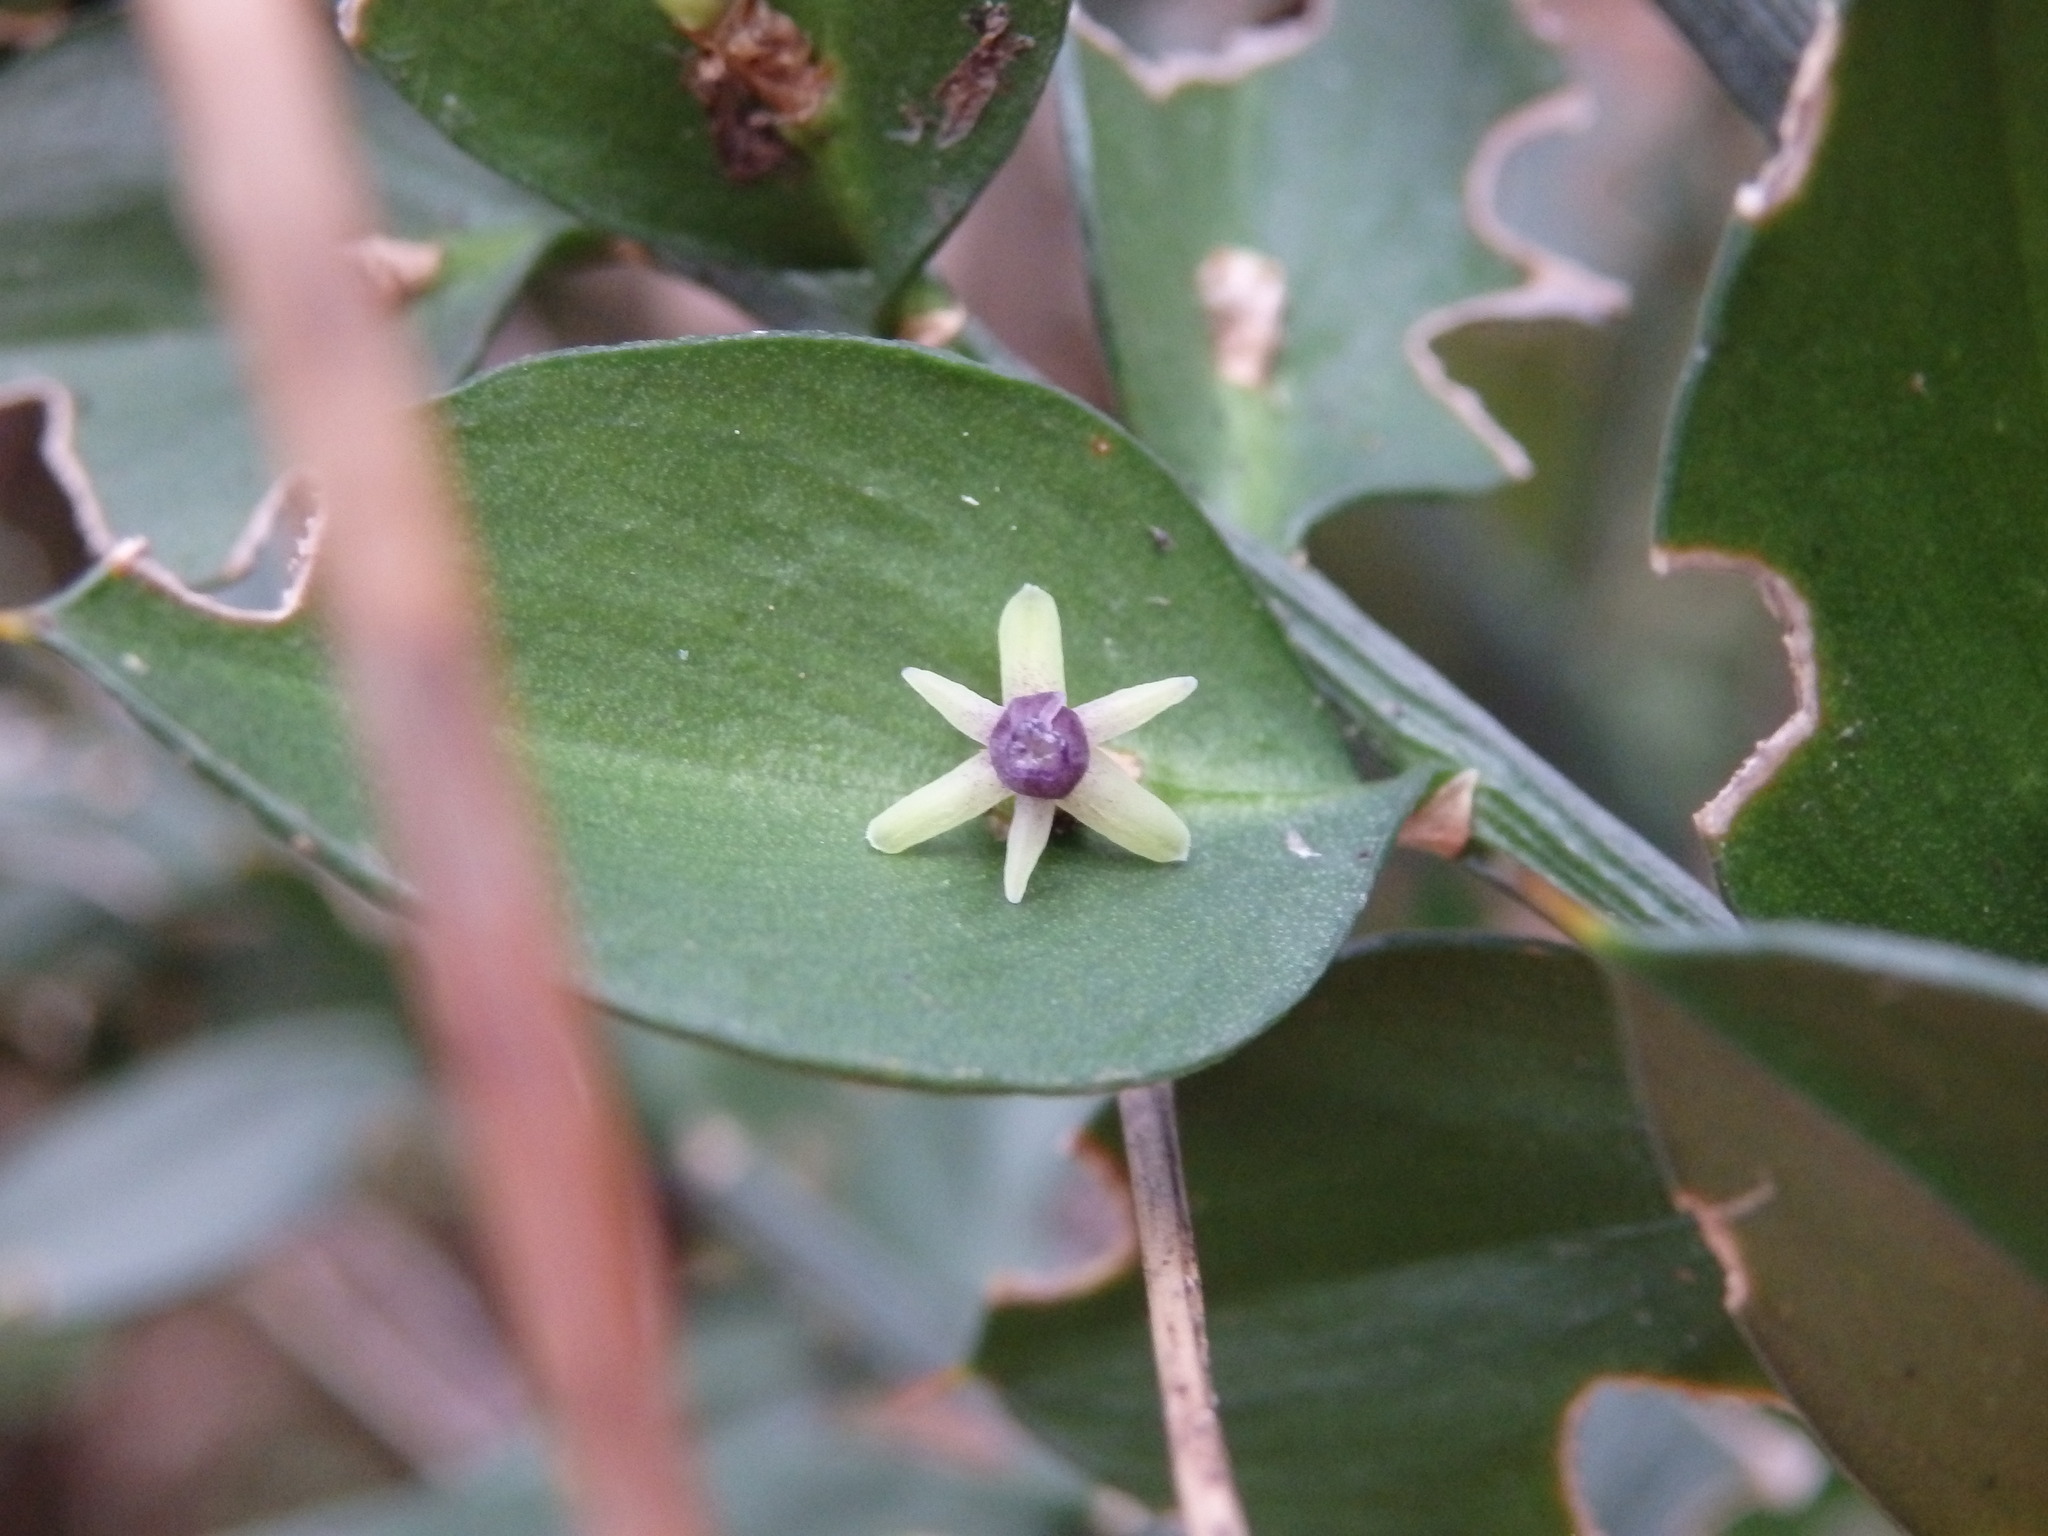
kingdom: Plantae
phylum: Tracheophyta
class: Liliopsida
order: Asparagales
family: Asparagaceae
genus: Ruscus
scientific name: Ruscus aculeatus
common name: Butcher's-broom
